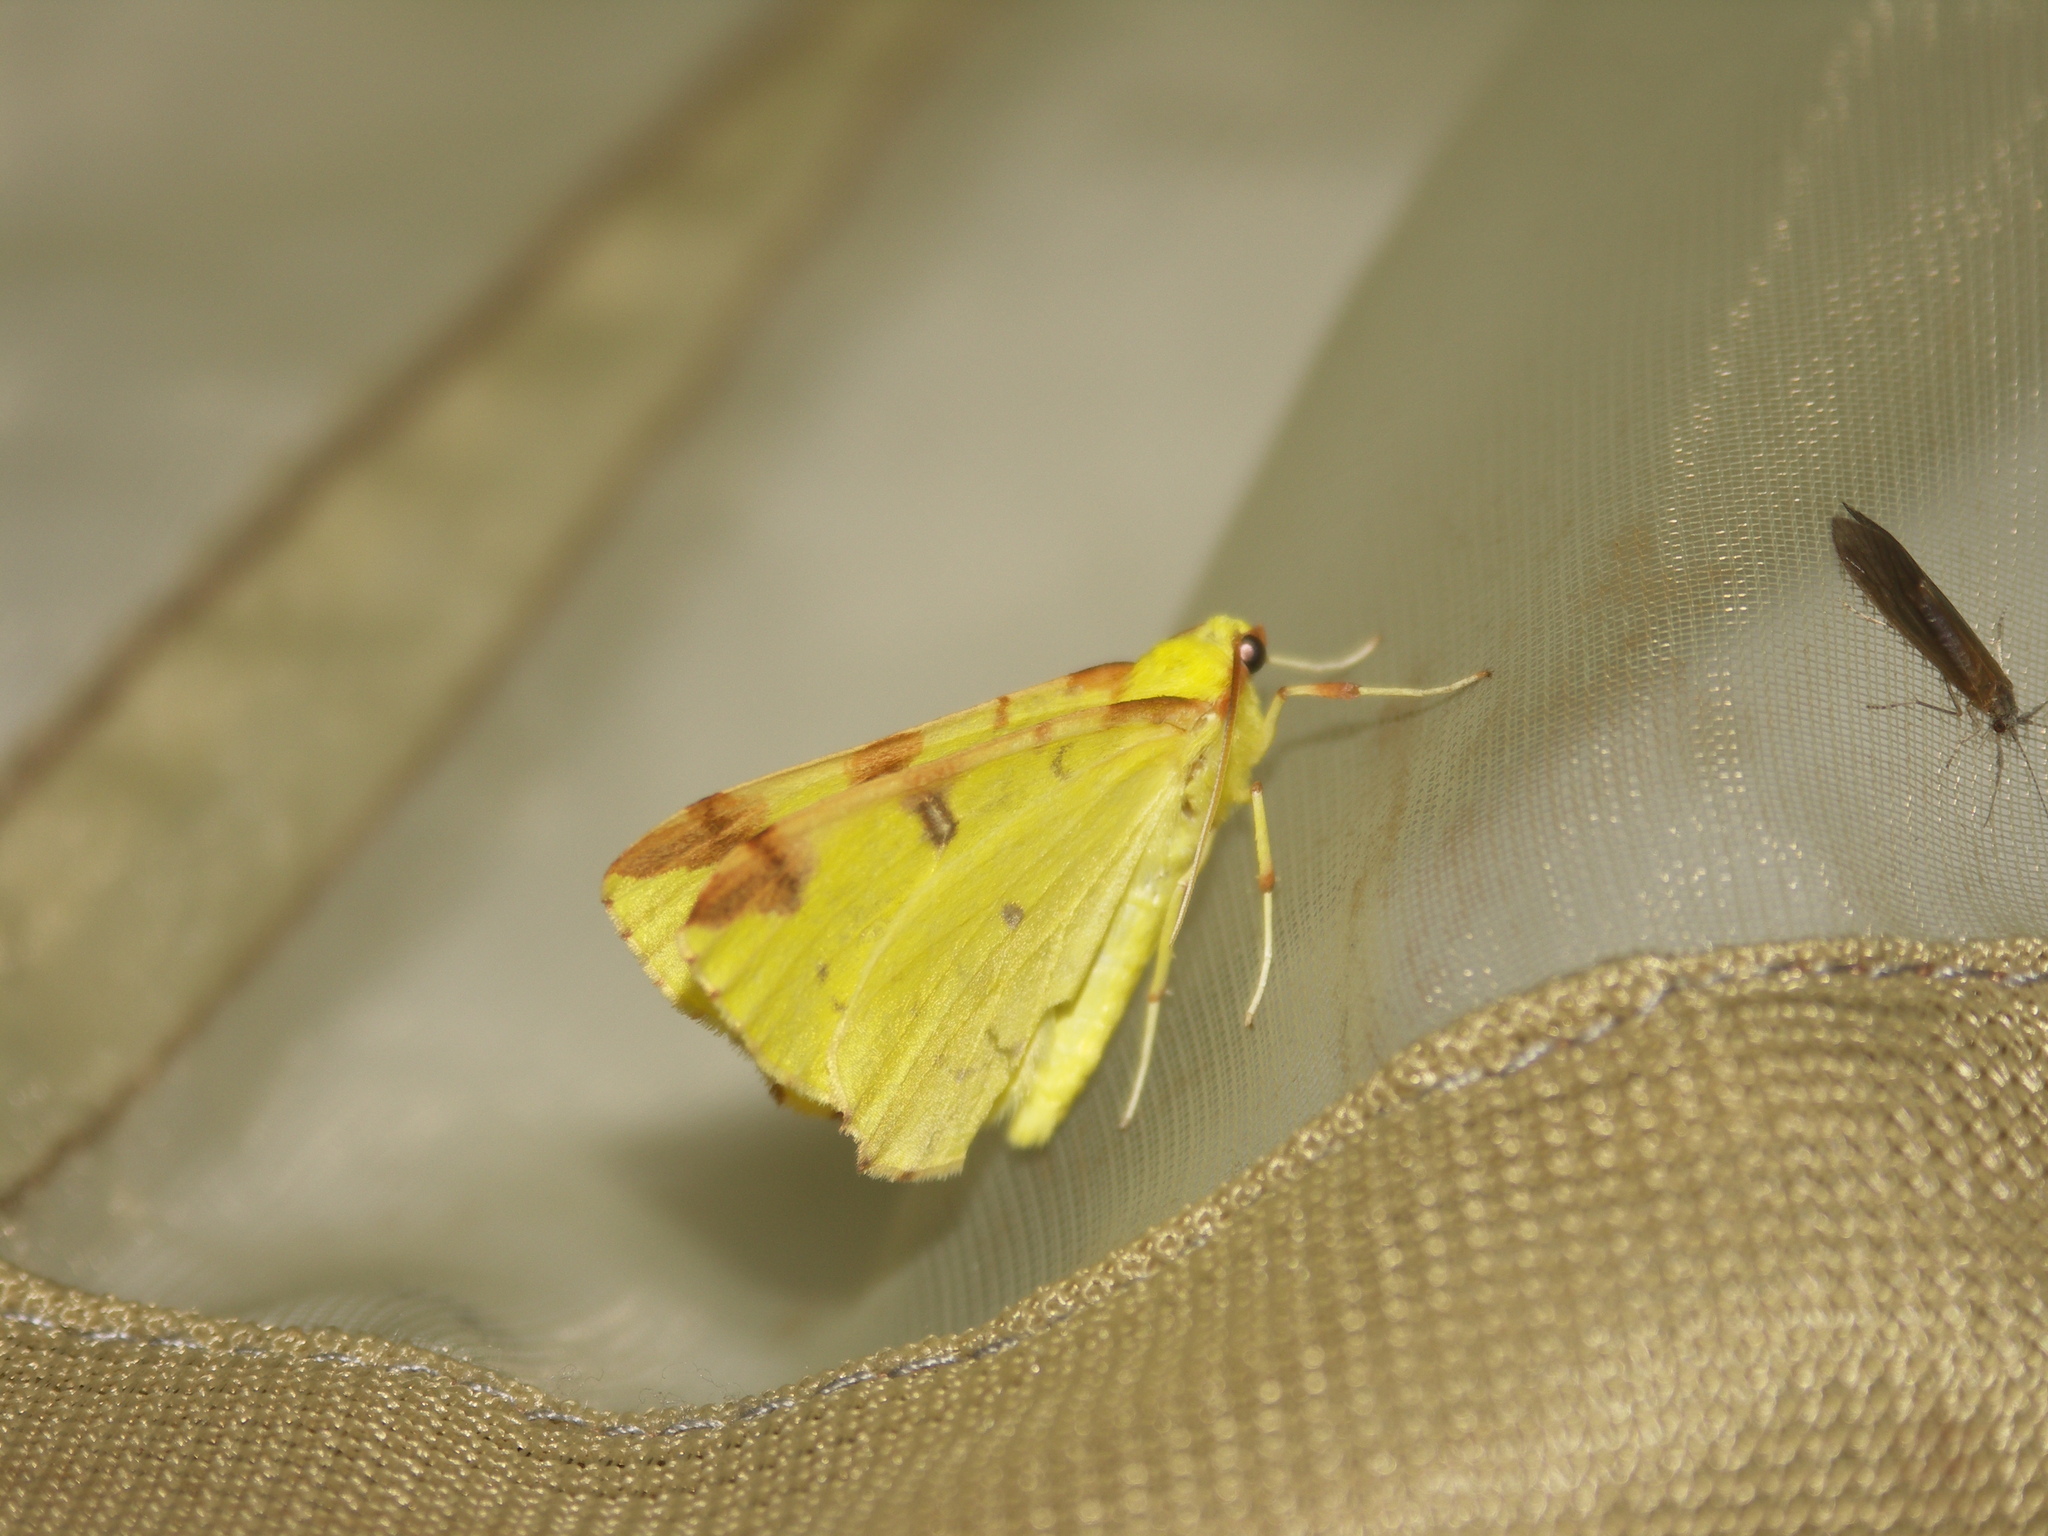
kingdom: Animalia
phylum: Arthropoda
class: Insecta
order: Lepidoptera
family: Geometridae
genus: Opisthograptis
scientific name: Opisthograptis luteolata
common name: Brimstone moth
